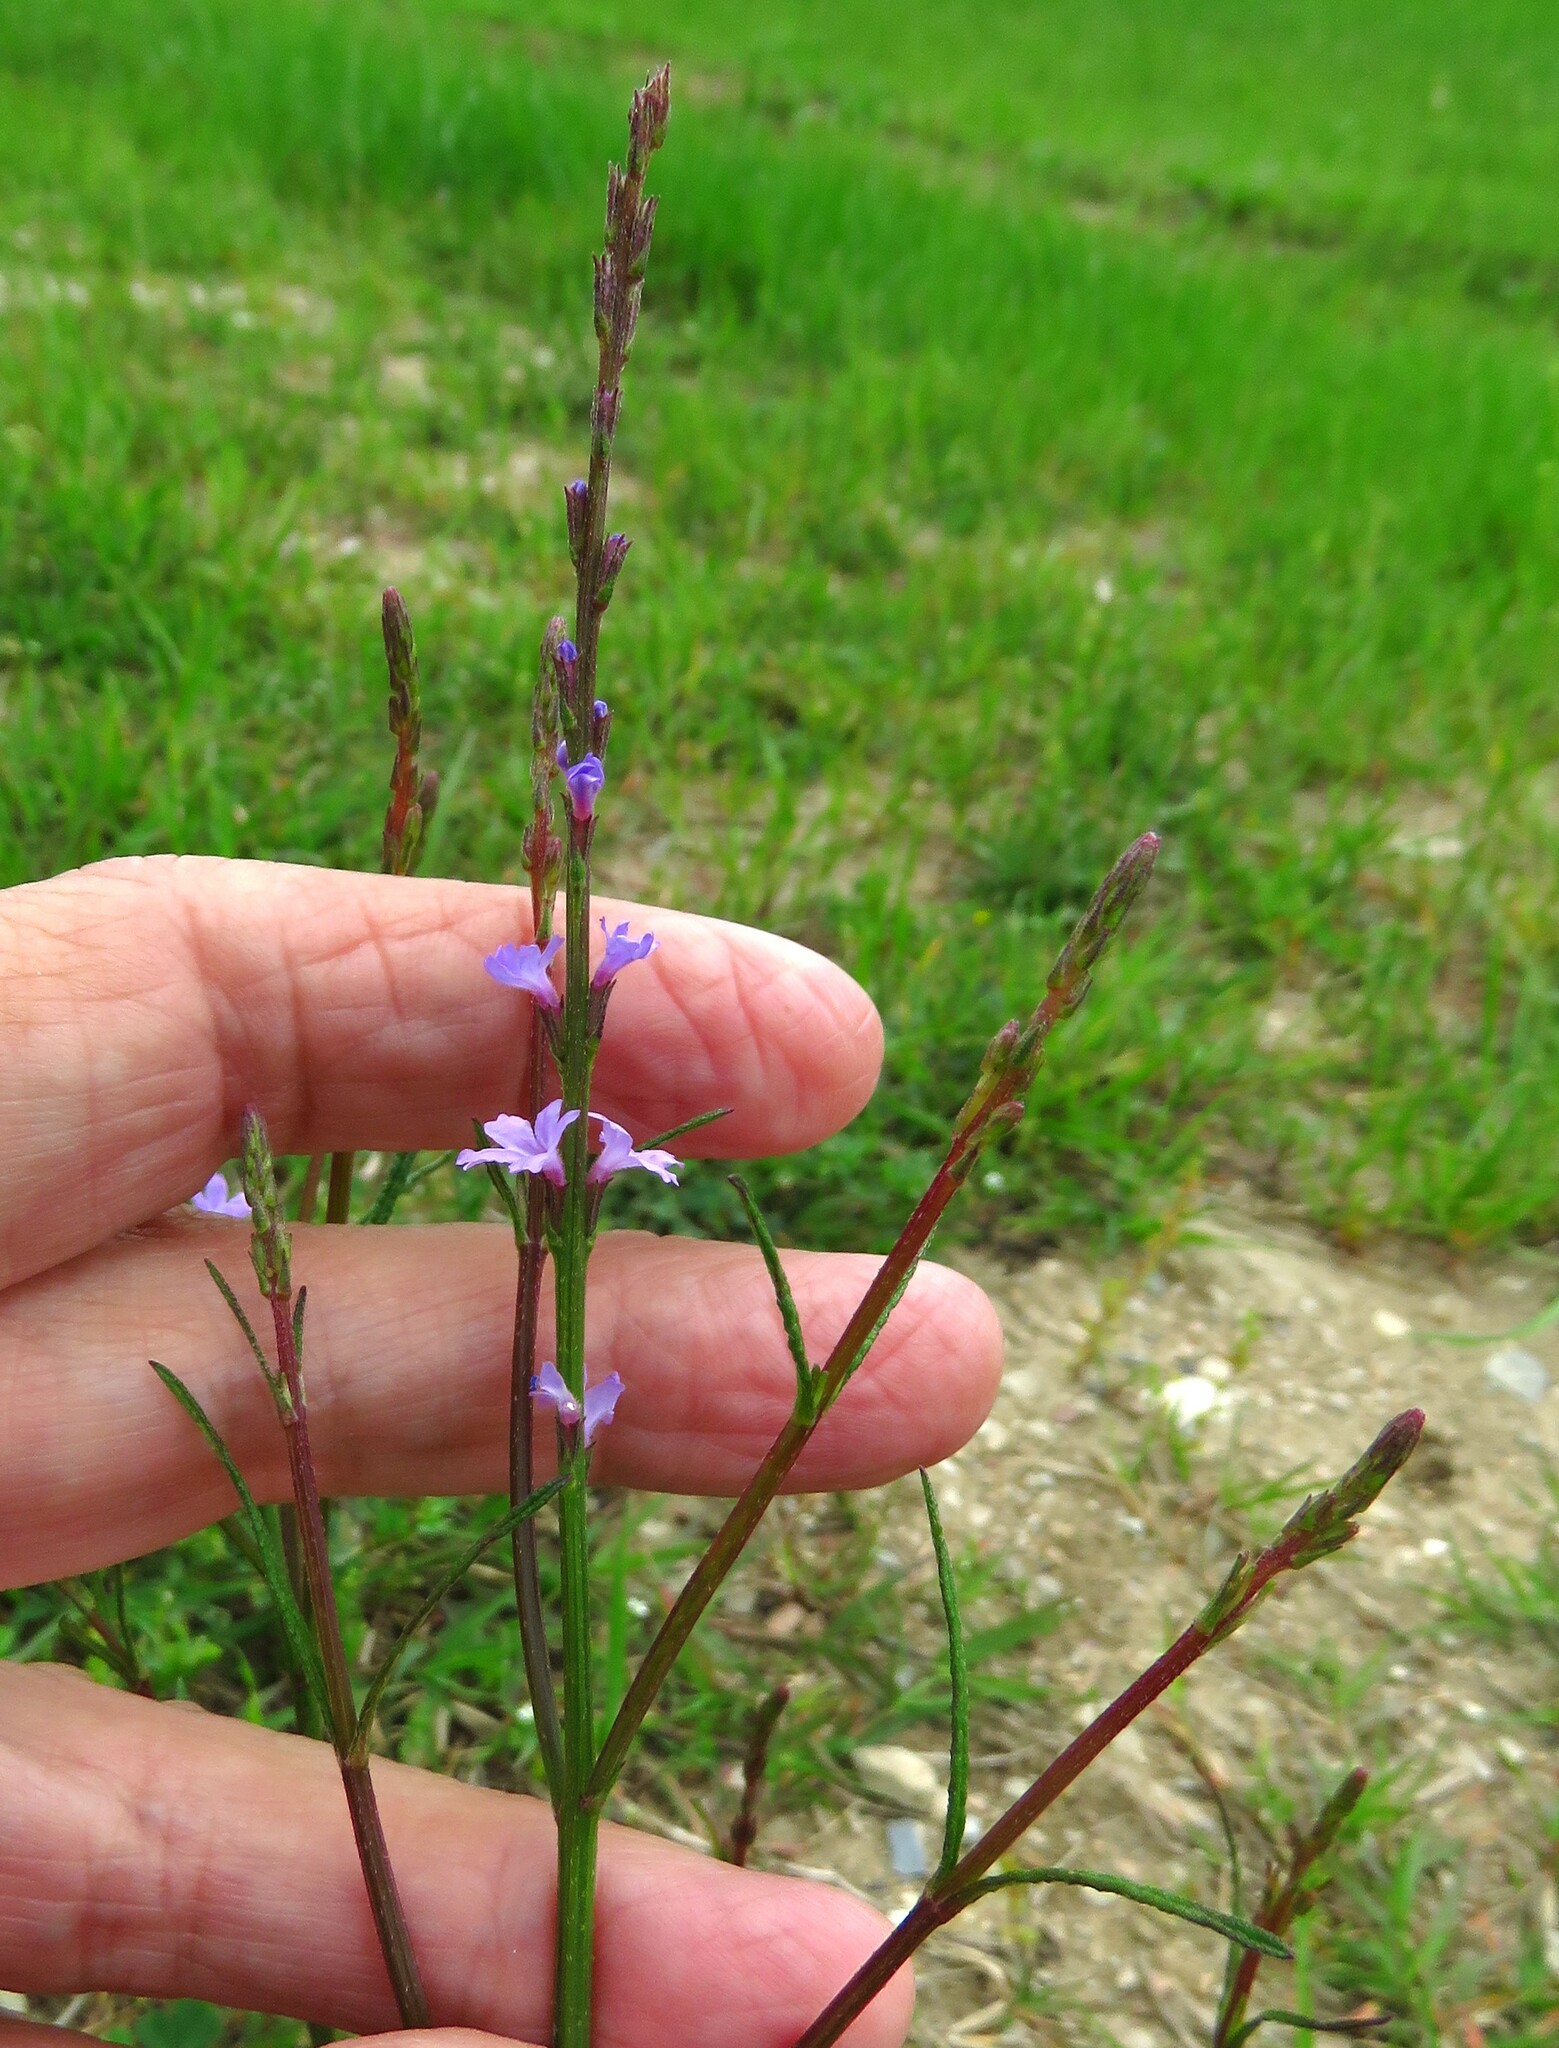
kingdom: Plantae
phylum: Tracheophyta
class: Magnoliopsida
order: Lamiales
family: Verbenaceae
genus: Verbena
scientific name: Verbena halei
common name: Texas vervain
